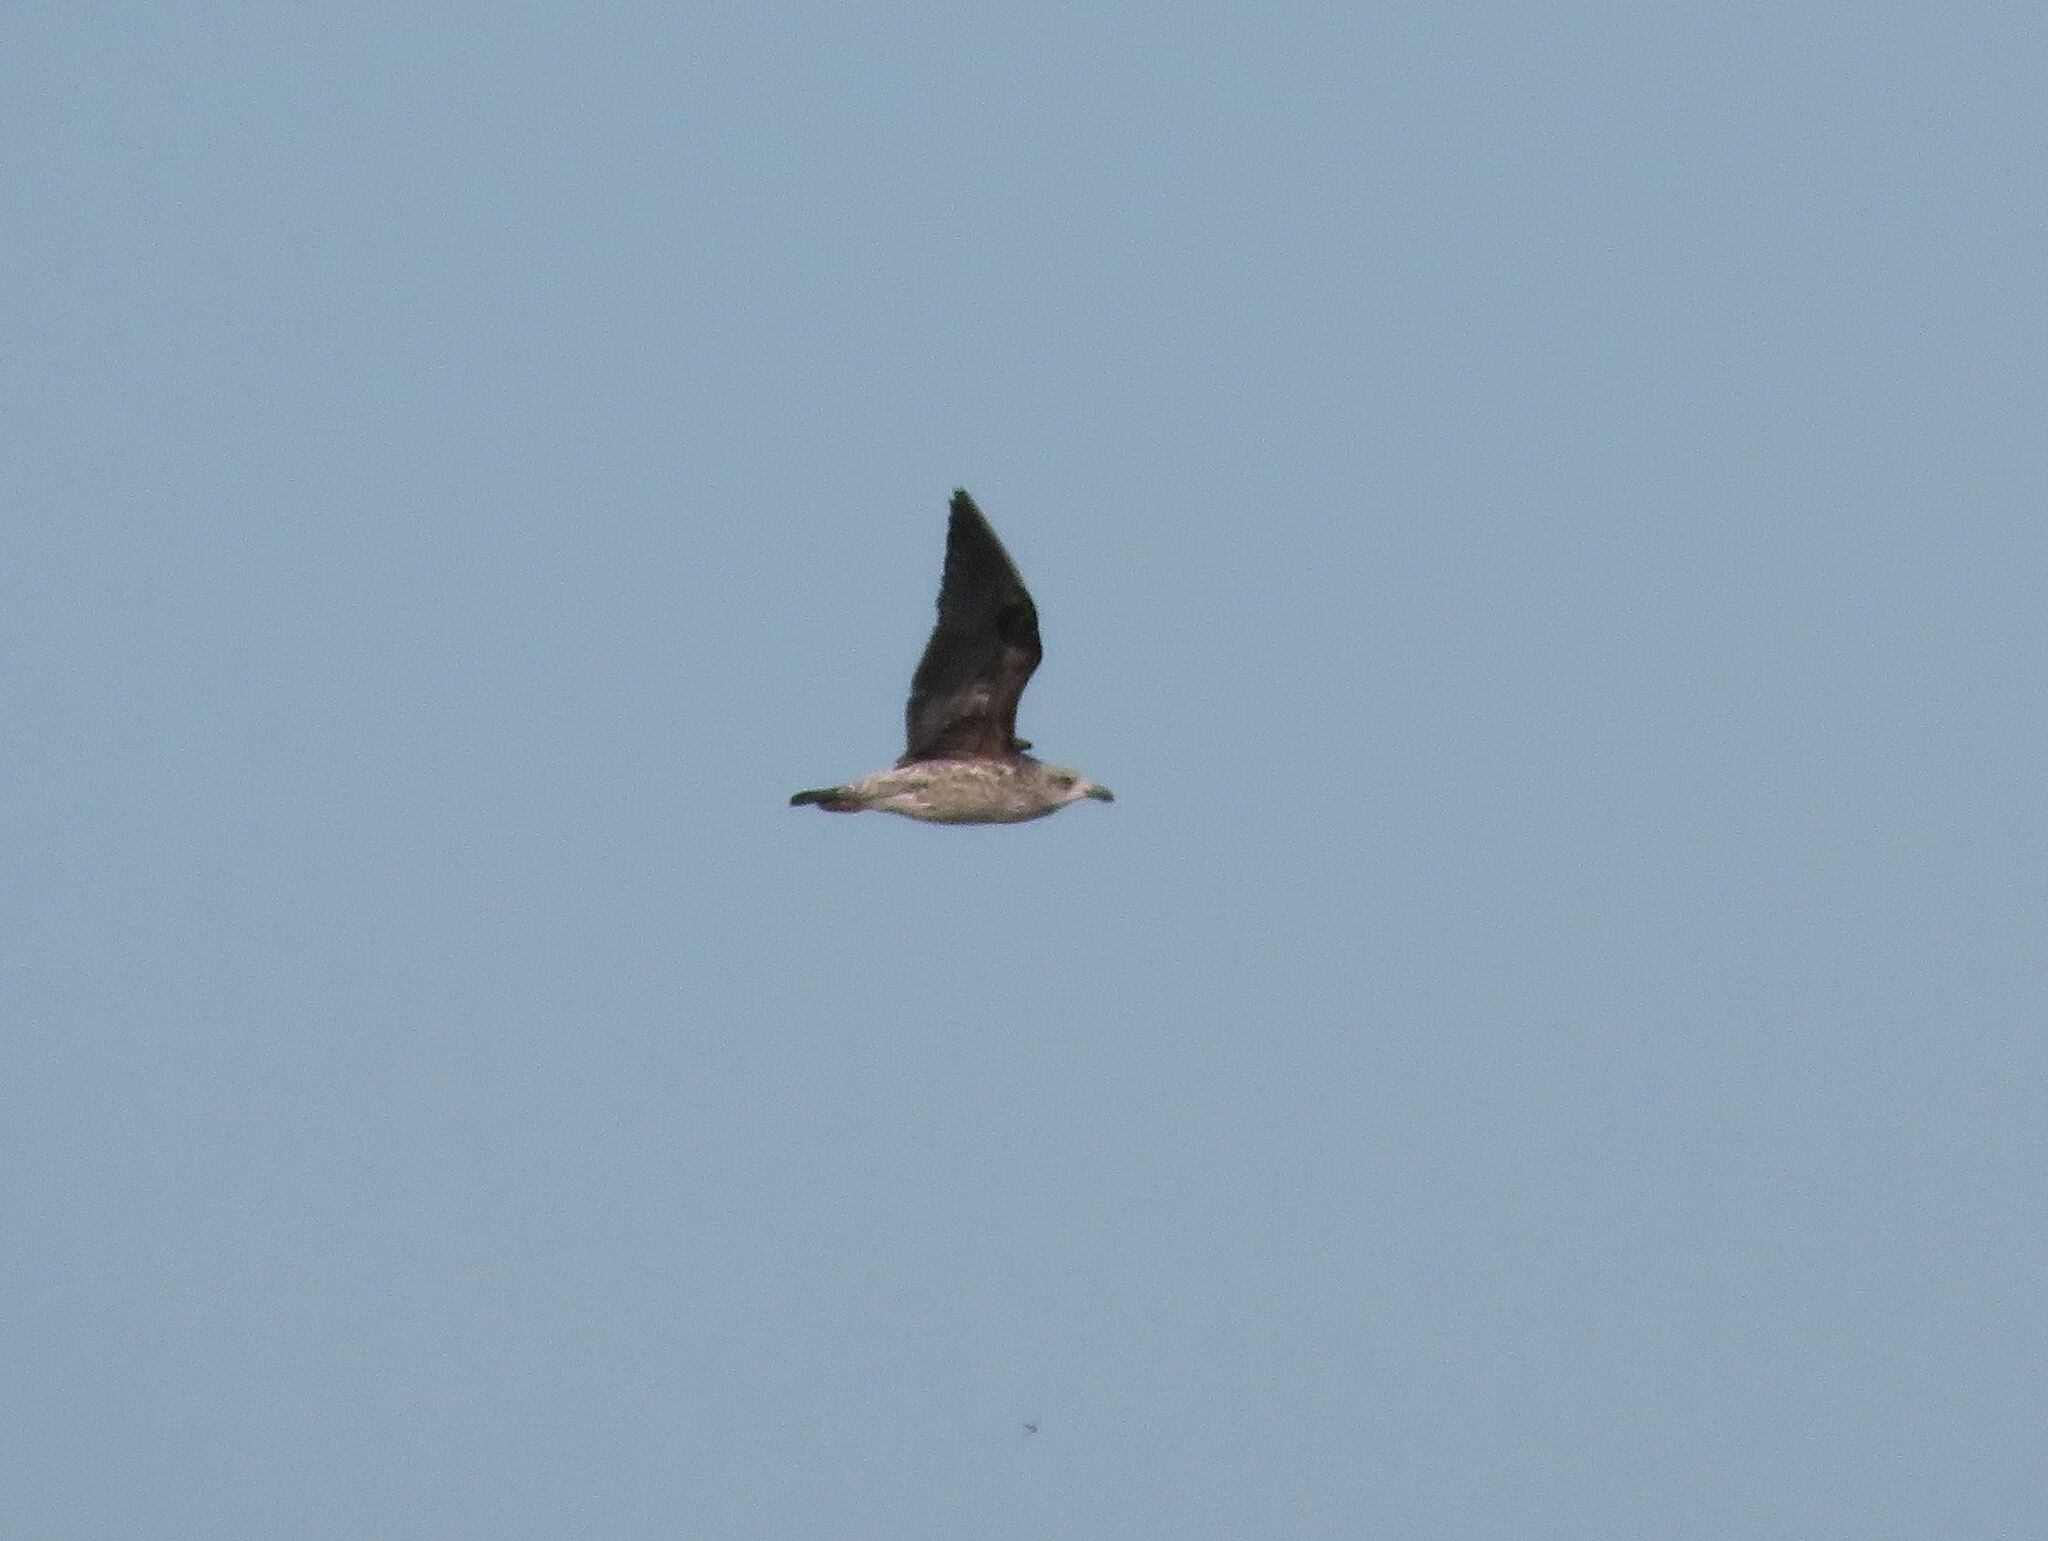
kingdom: Animalia
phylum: Chordata
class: Aves
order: Charadriiformes
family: Laridae
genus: Larus
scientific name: Larus dominicanus
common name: Kelp gull
